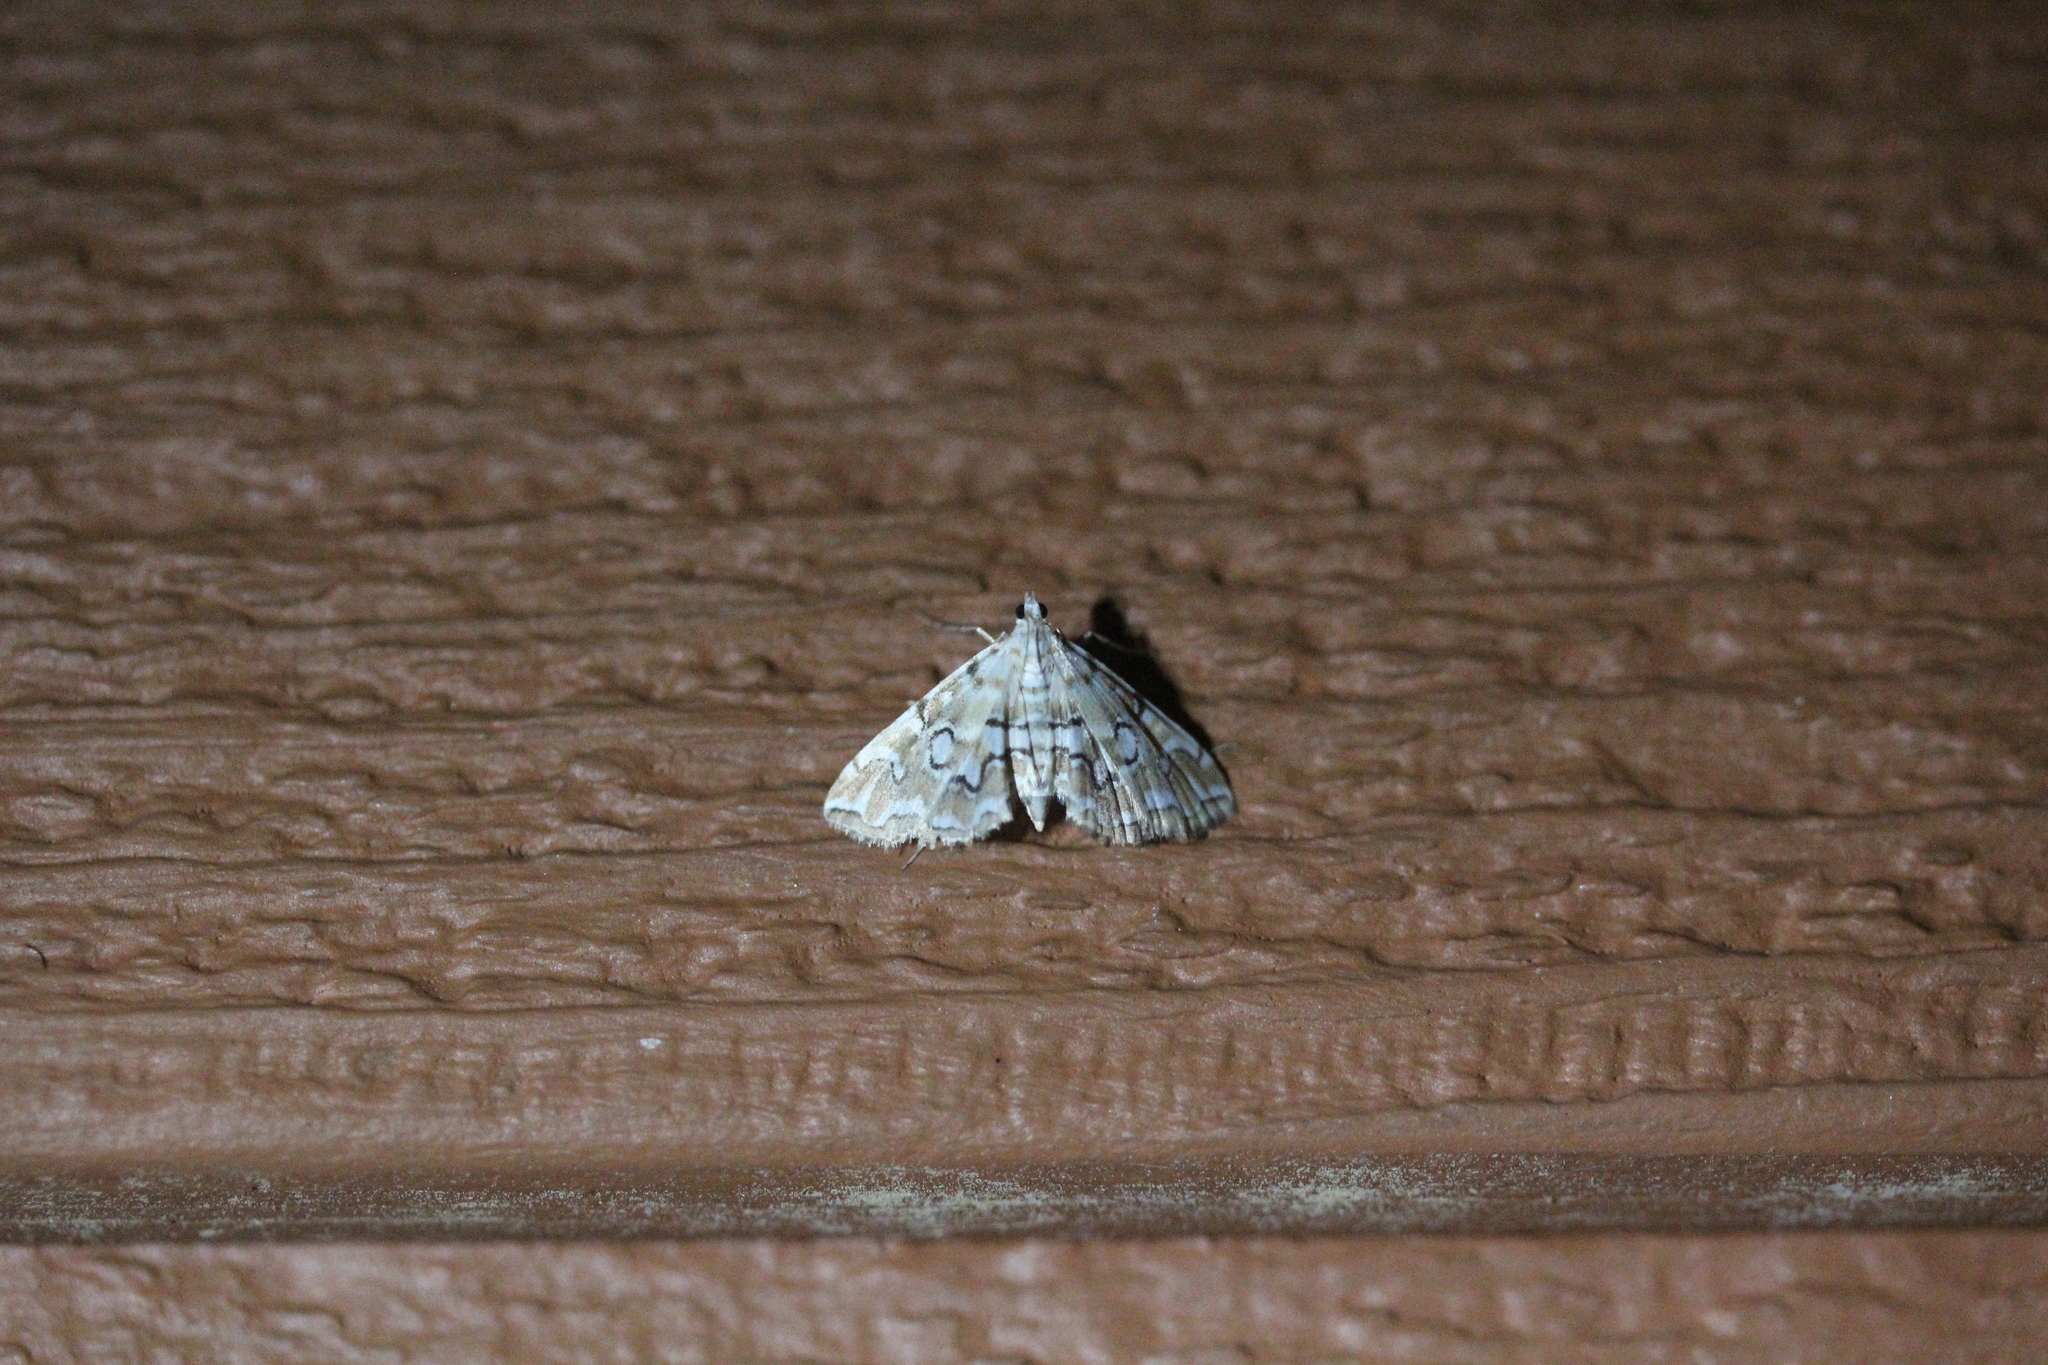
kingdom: Animalia
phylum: Arthropoda
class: Insecta
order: Lepidoptera
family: Crambidae
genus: Elophila
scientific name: Elophila icciusalis
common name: Pondside pyralid moth
